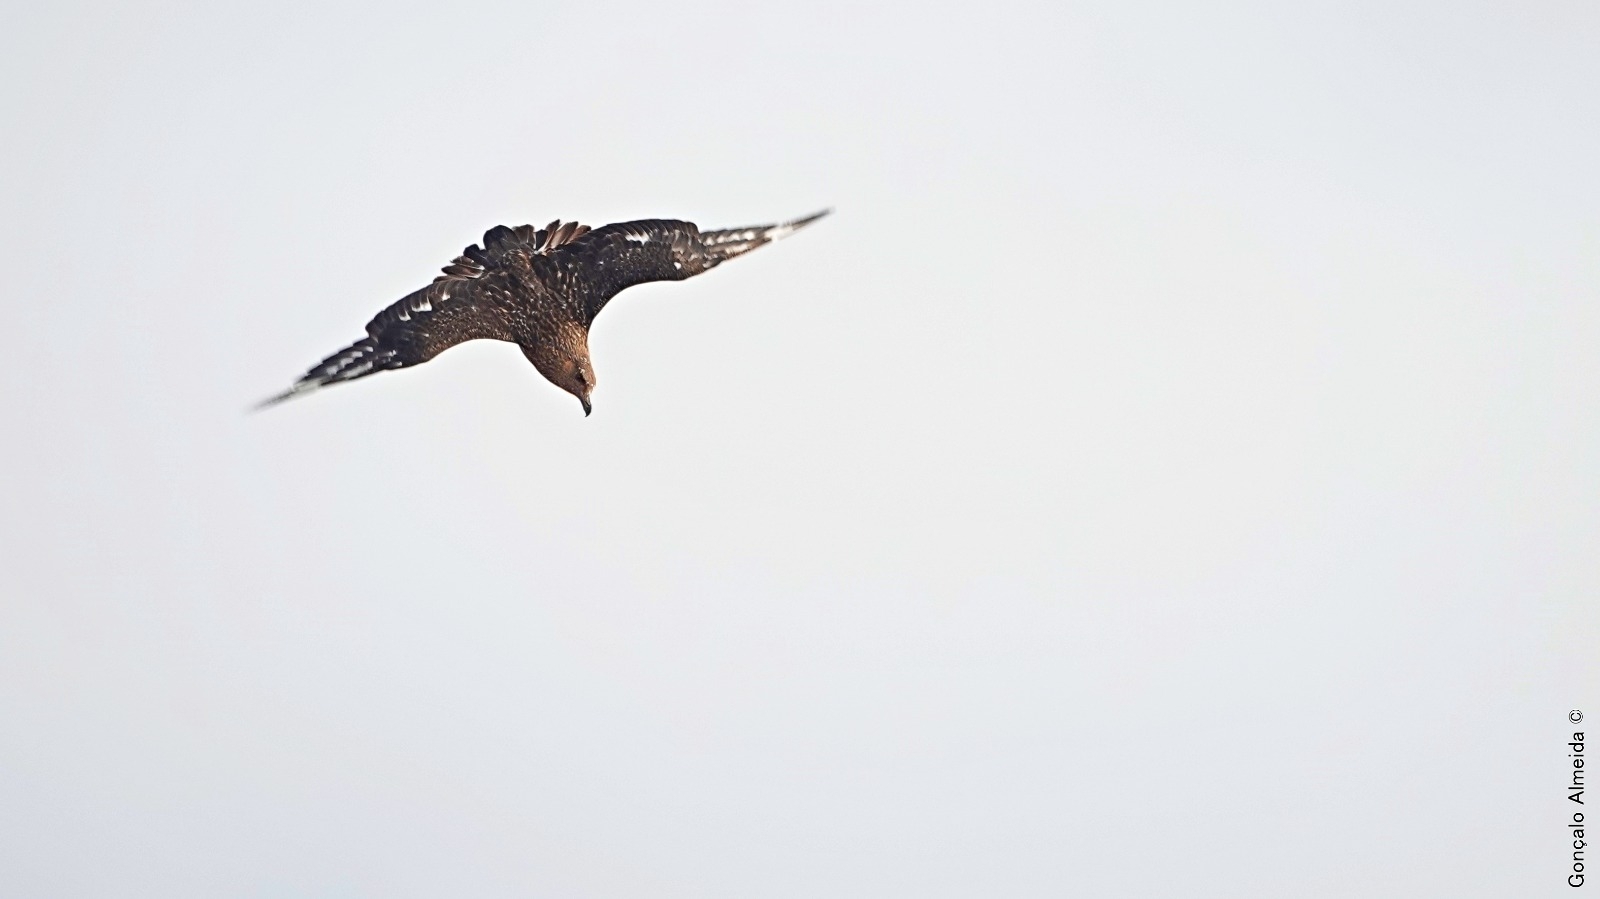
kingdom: Animalia
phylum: Chordata
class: Aves
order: Charadriiformes
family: Stercorariidae
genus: Stercorarius
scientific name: Stercorarius skua
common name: Great skua
